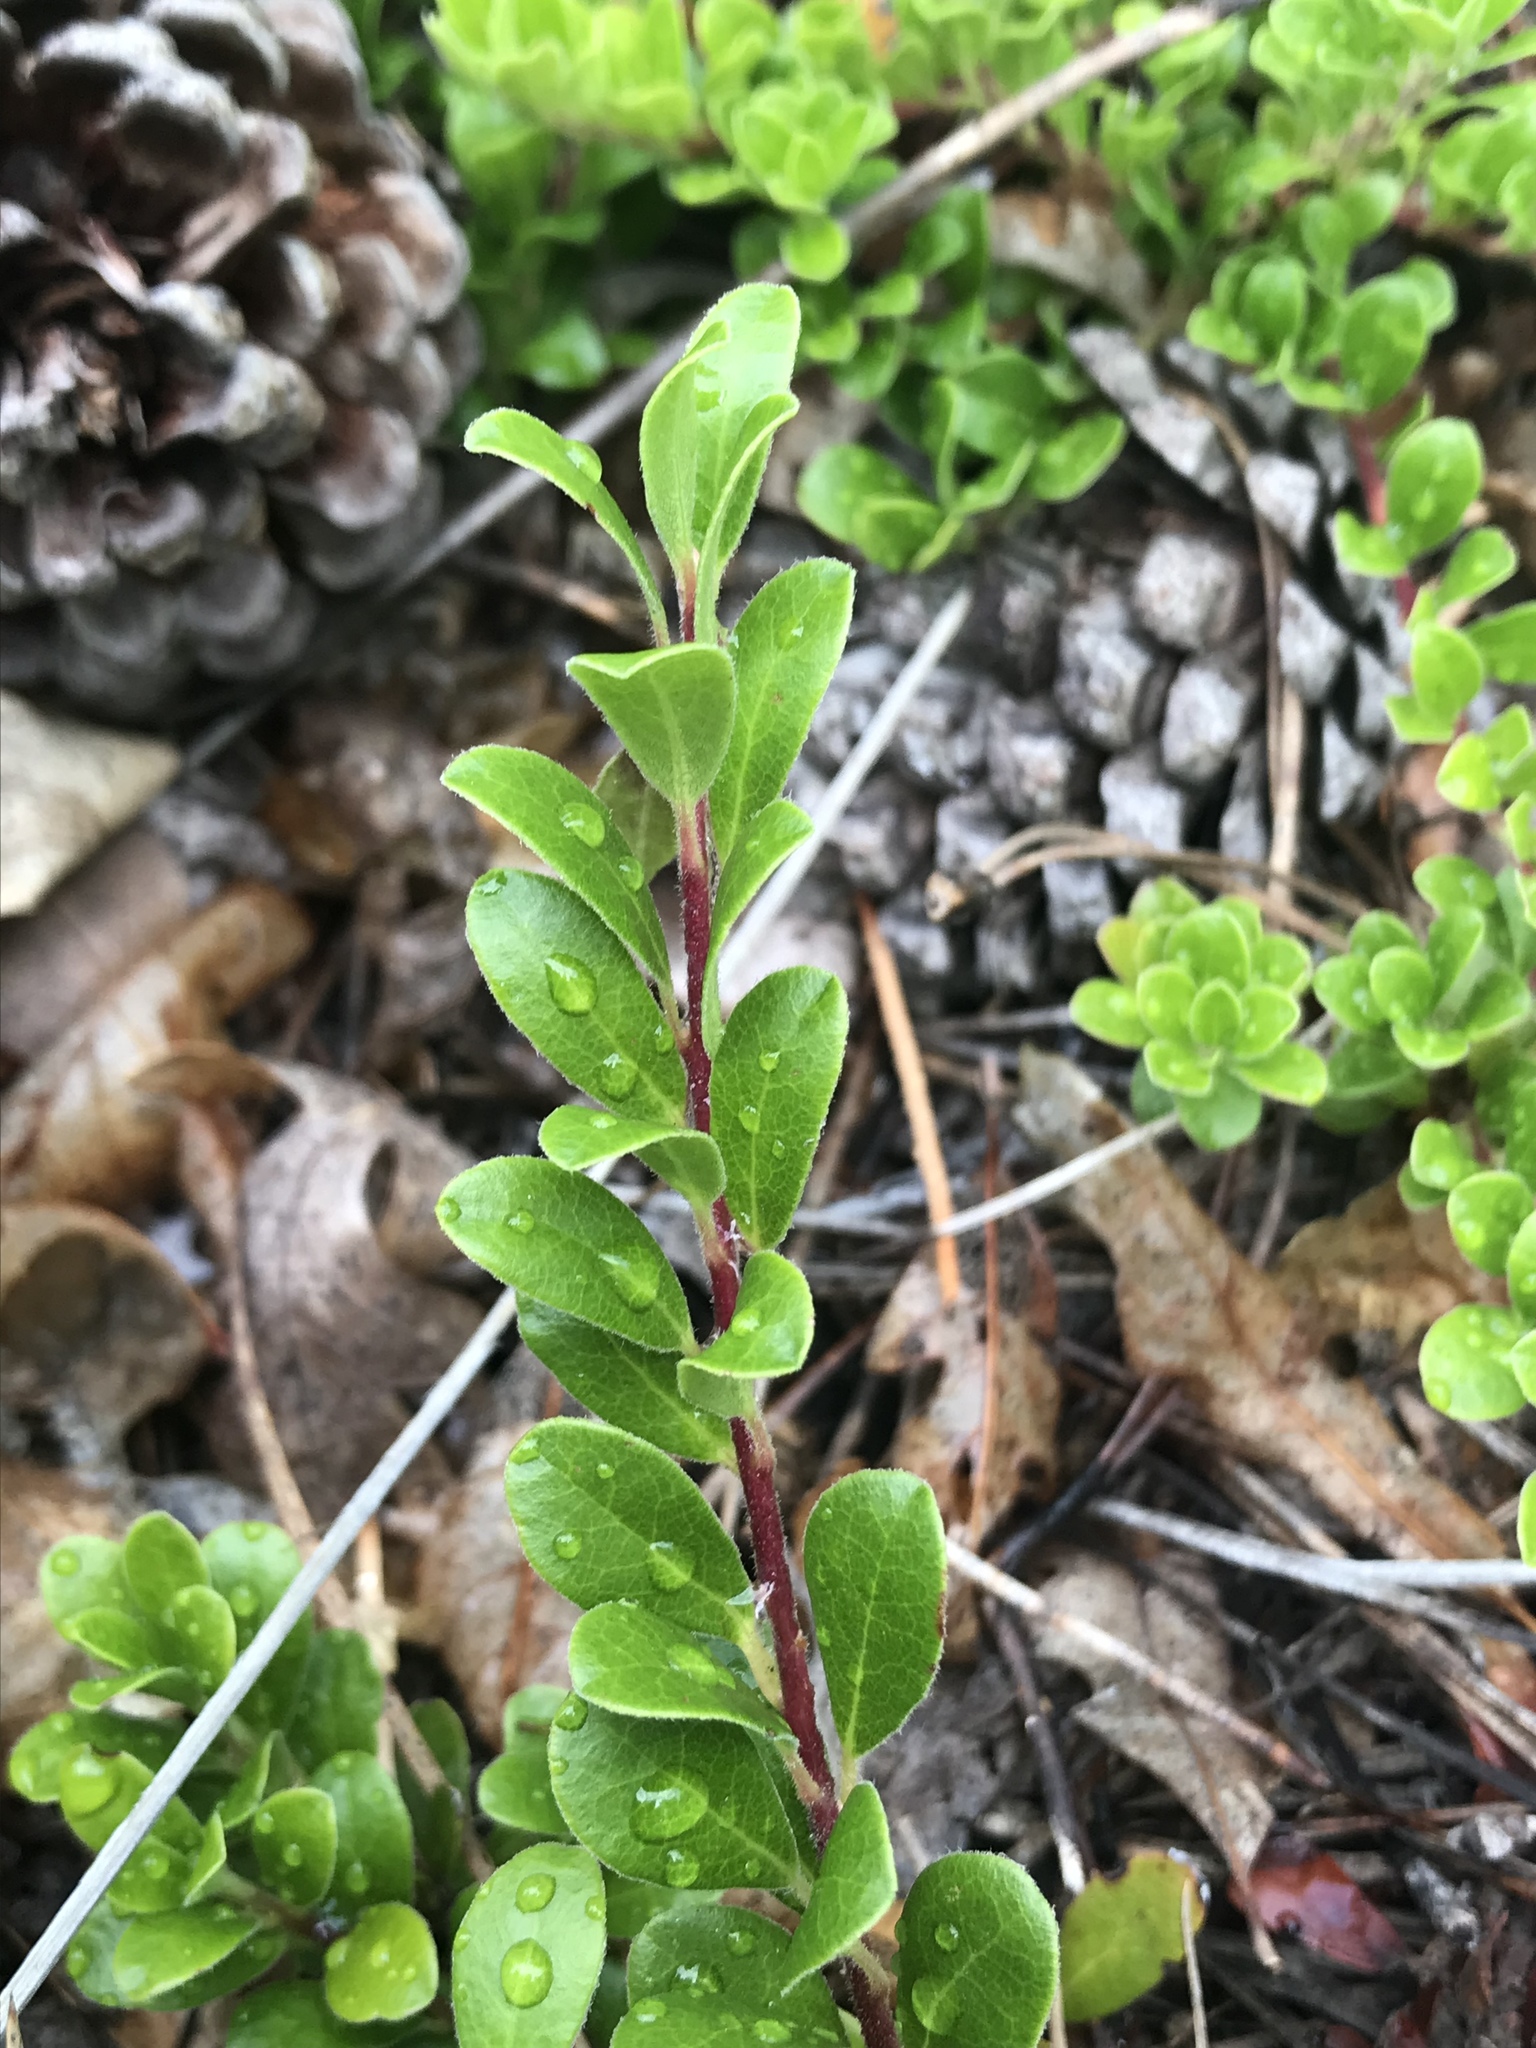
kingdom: Plantae
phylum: Tracheophyta
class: Magnoliopsida
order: Ericales
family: Ericaceae
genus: Arctostaphylos
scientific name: Arctostaphylos uva-ursi
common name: Bearberry
